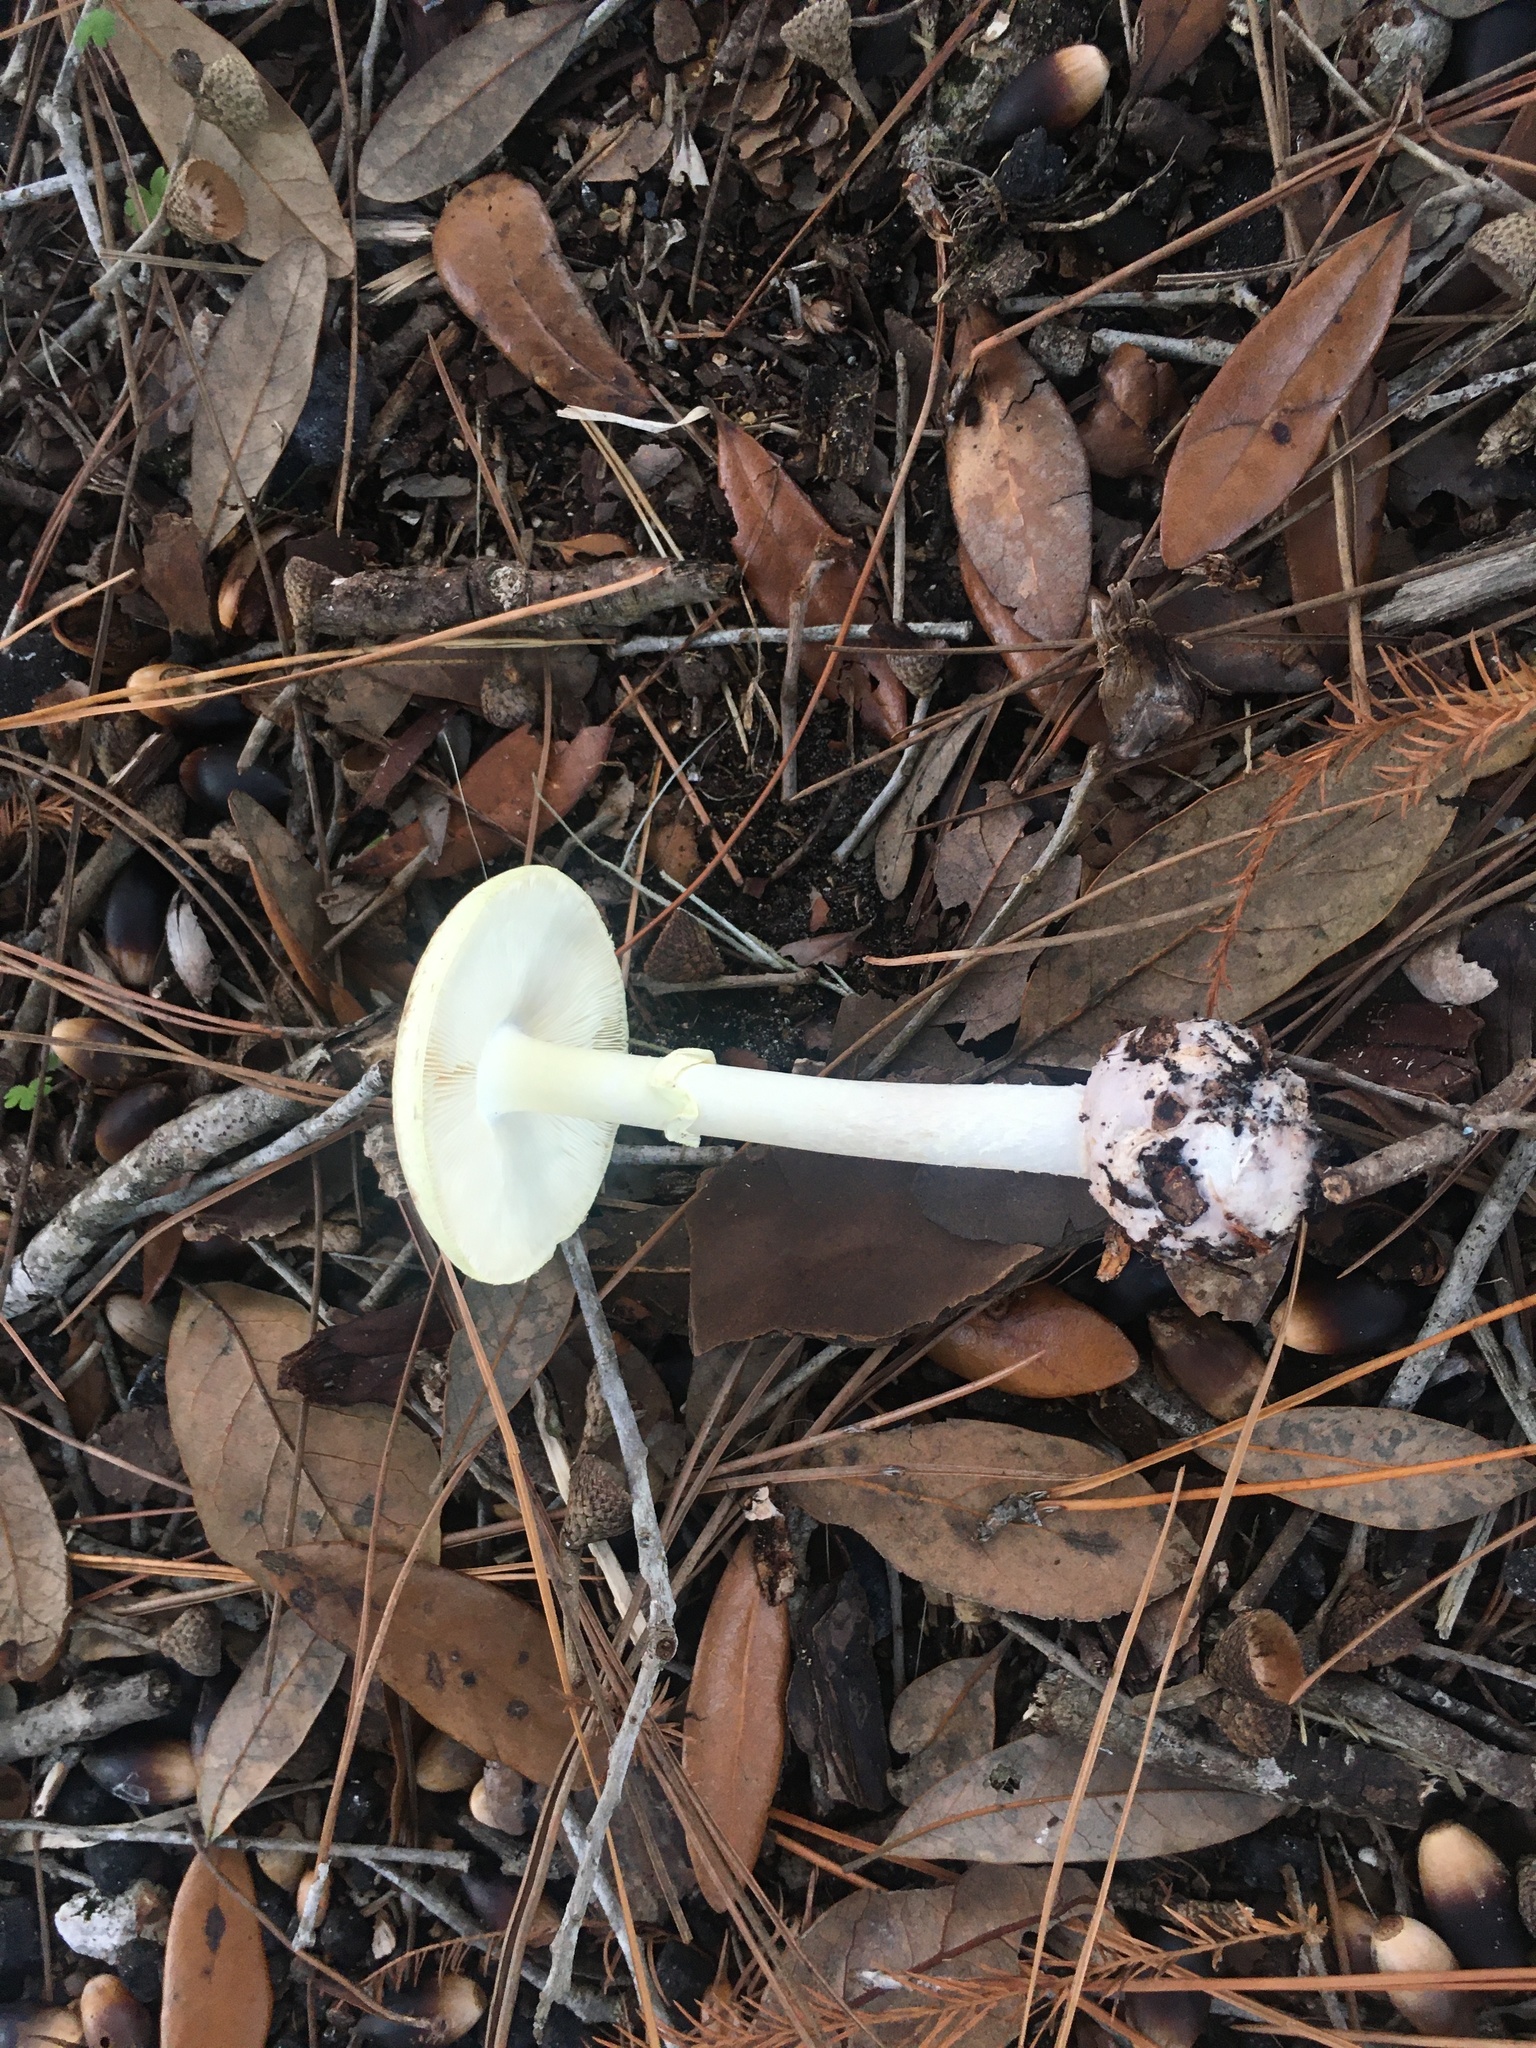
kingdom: Fungi
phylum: Basidiomycota
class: Agaricomycetes
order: Agaricales
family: Amanitaceae
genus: Amanita
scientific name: Amanita lavendula
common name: Coker's lavender staining amanita
